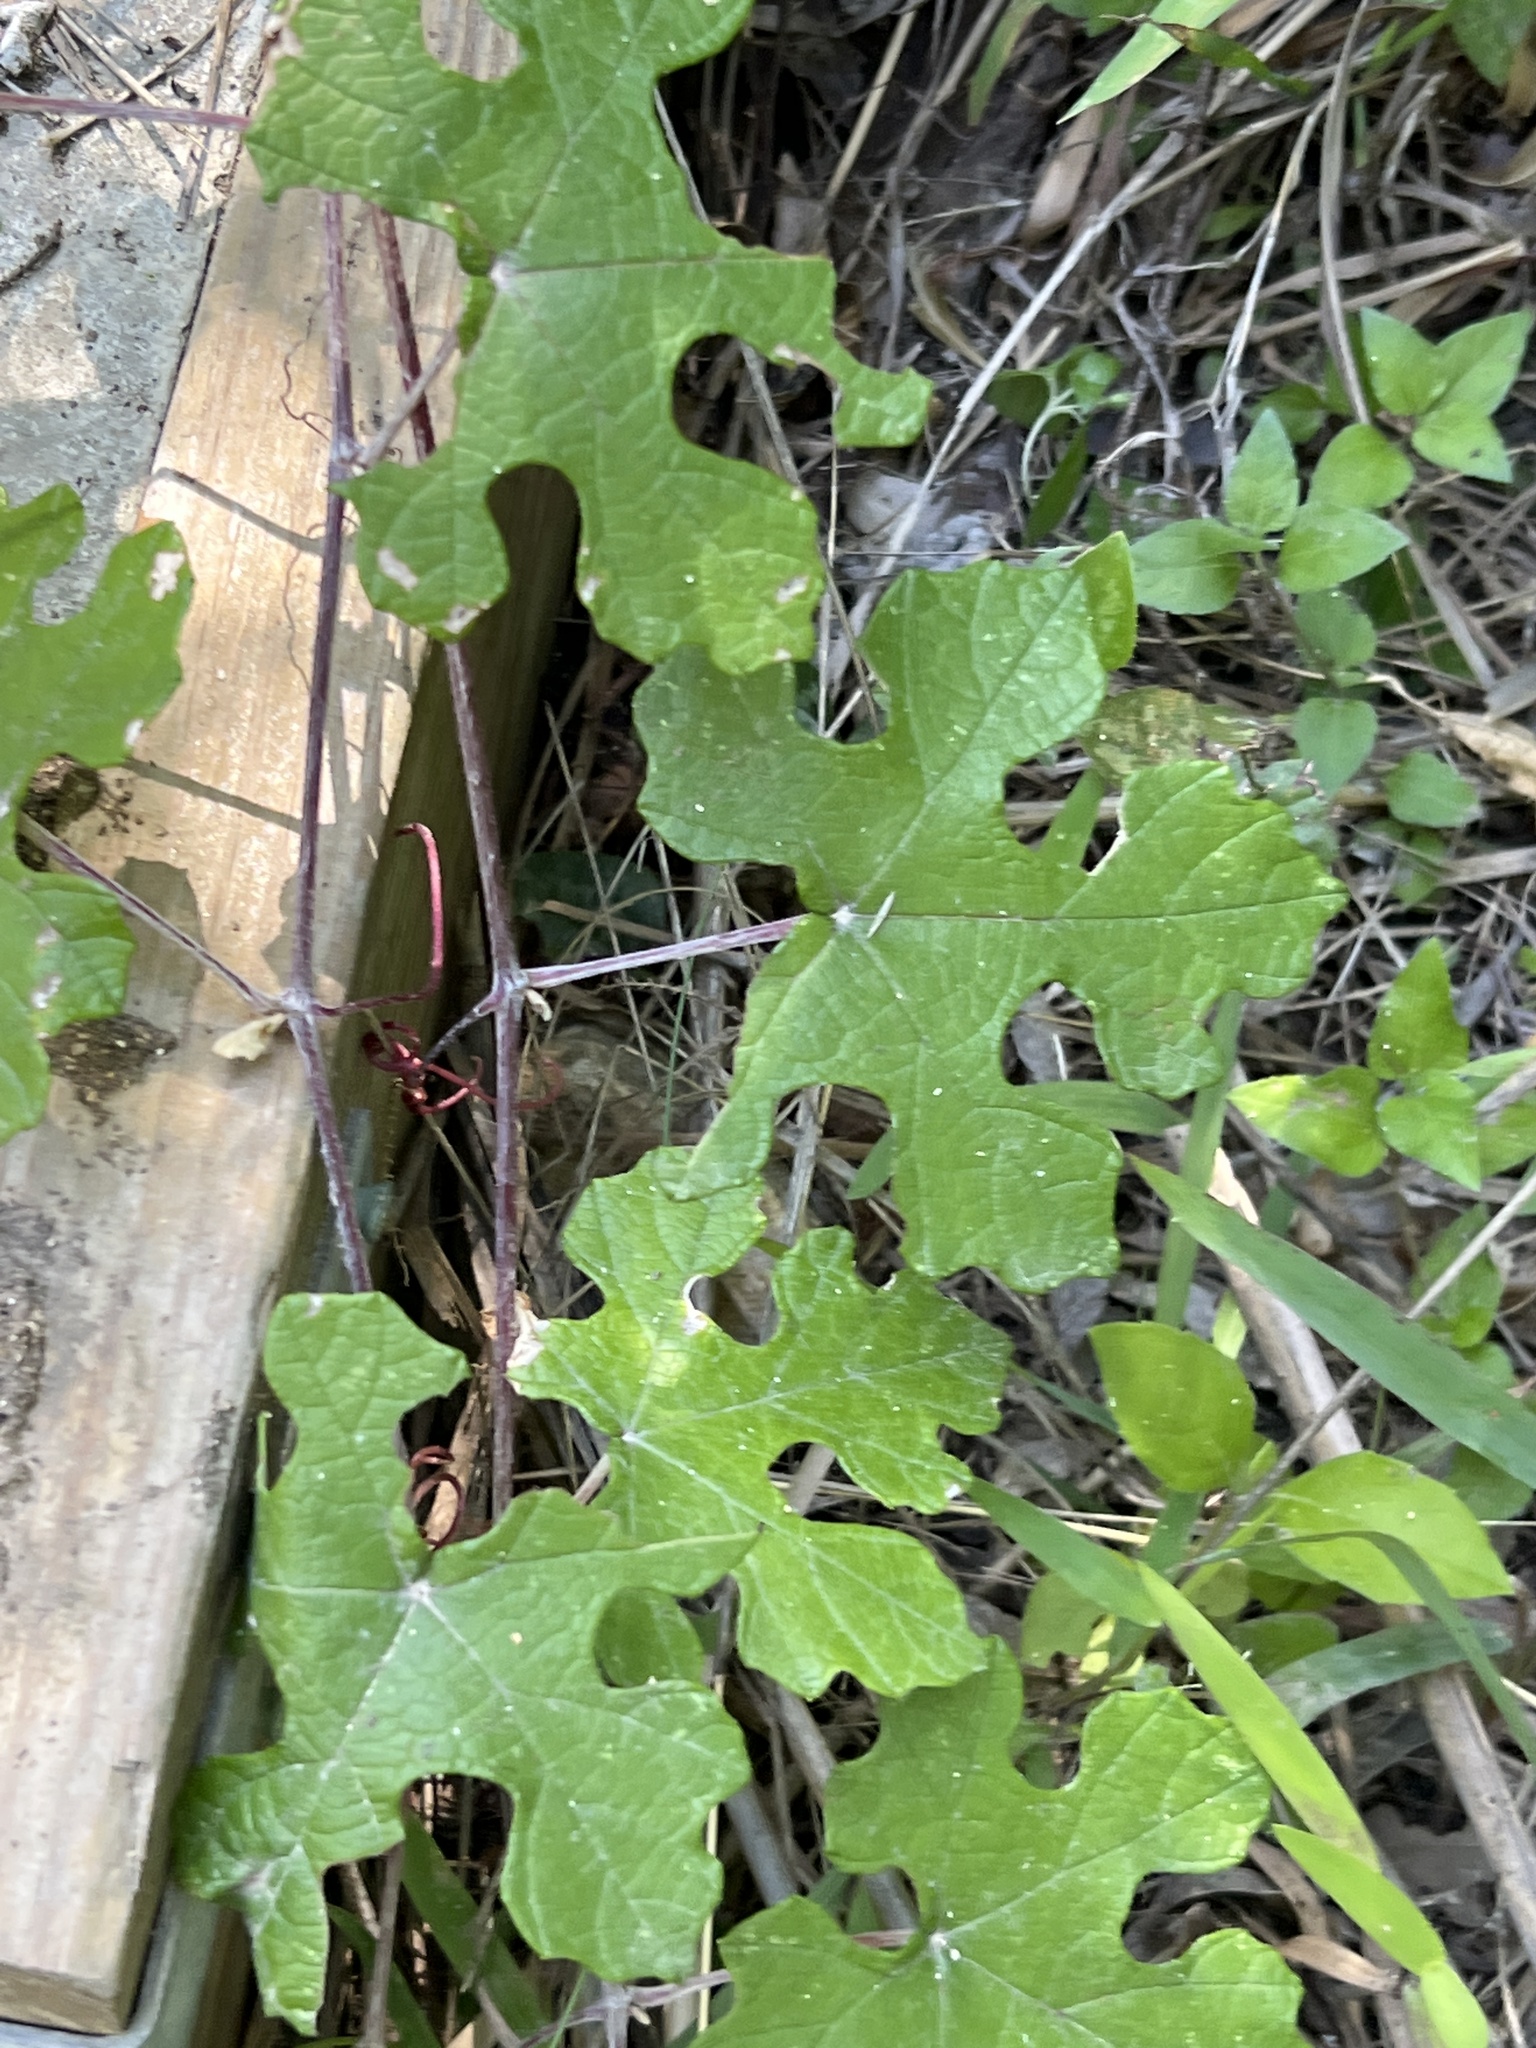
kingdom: Plantae
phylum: Tracheophyta
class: Magnoliopsida
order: Vitales
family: Vitaceae
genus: Vitis
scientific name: Vitis mustangensis
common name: Mustang grape
